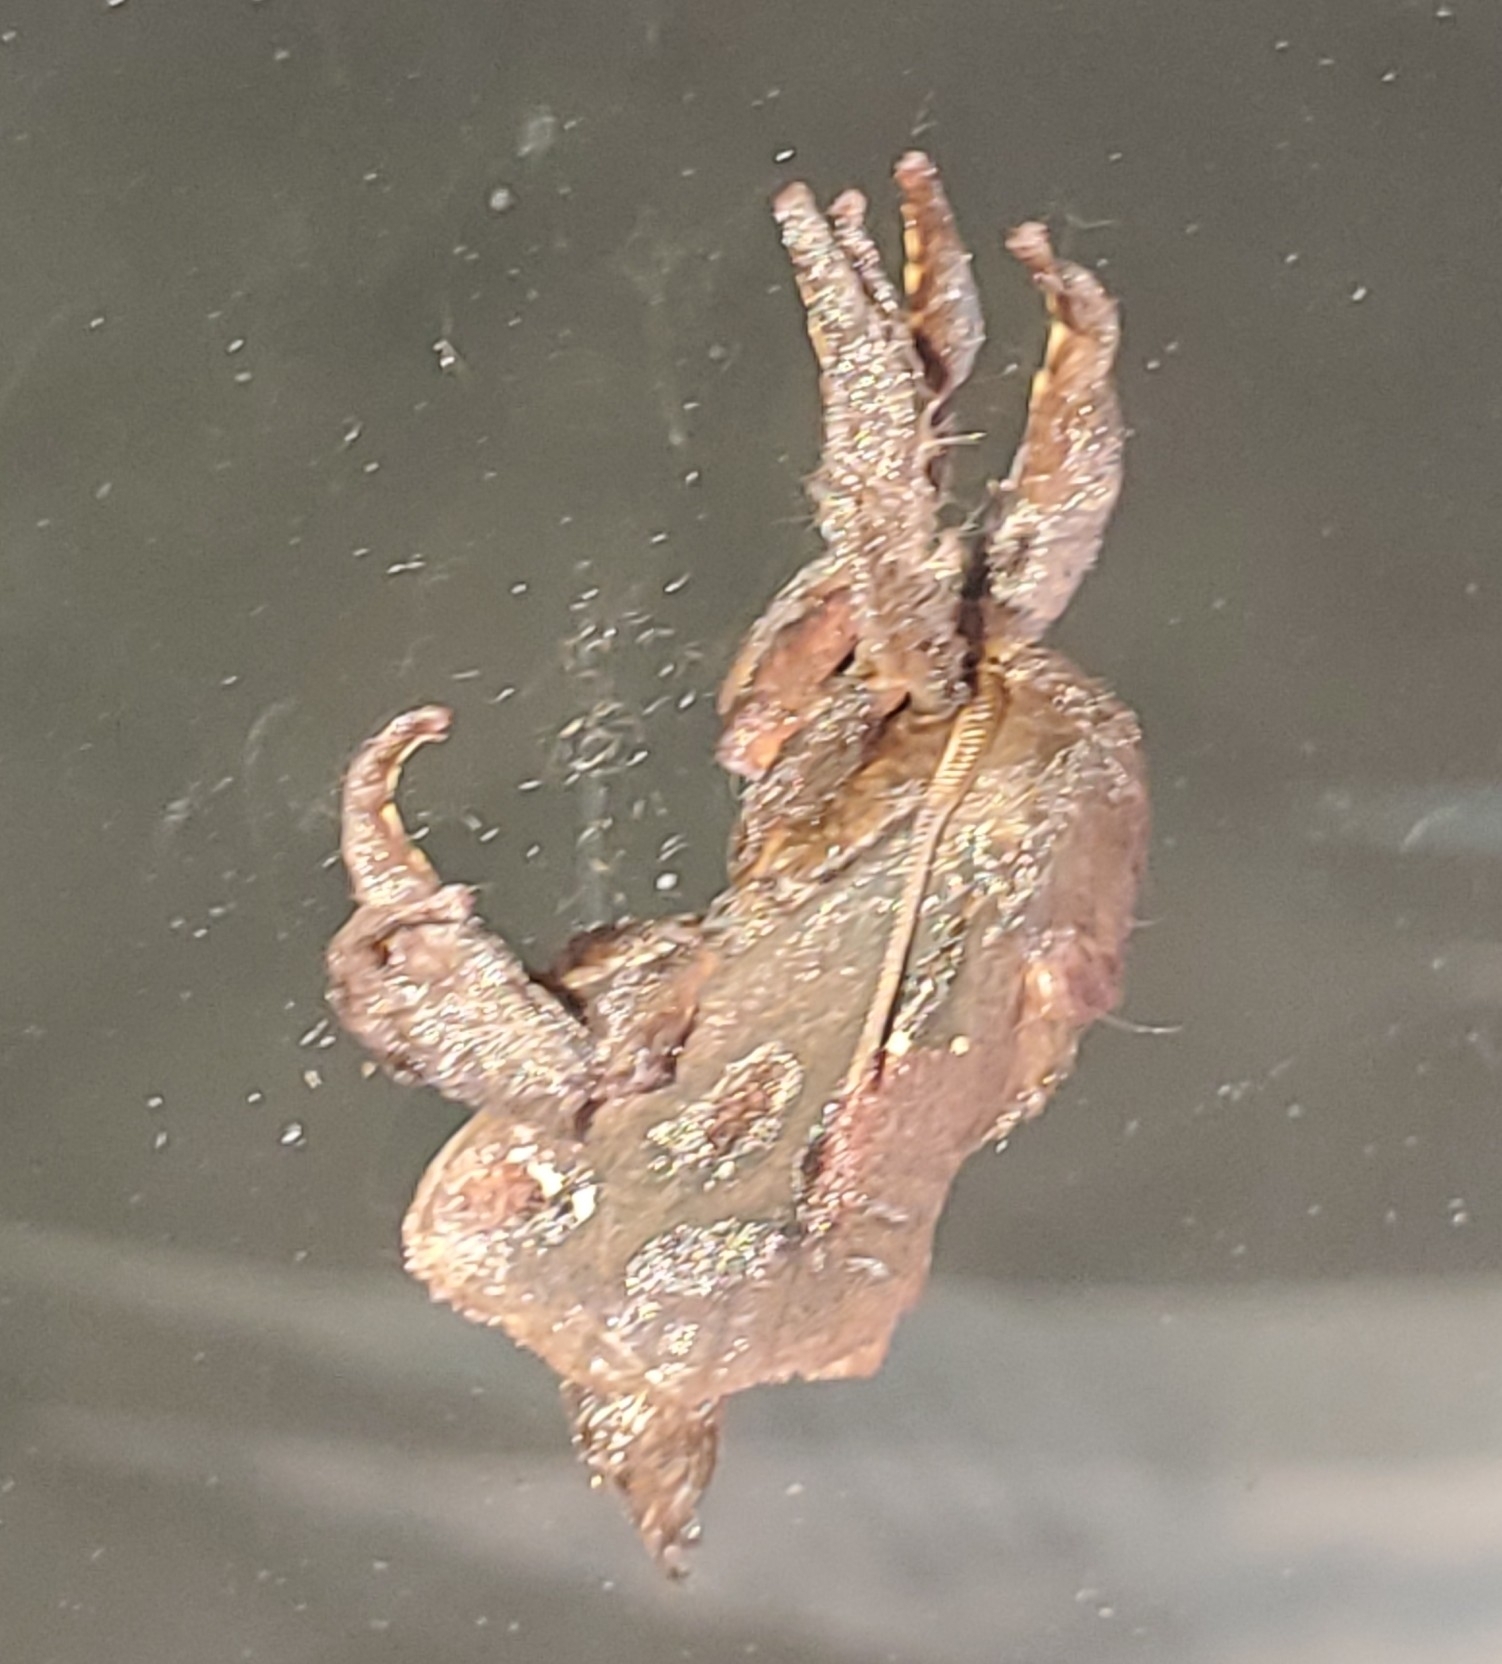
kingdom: Animalia
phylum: Arthropoda
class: Insecta
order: Lepidoptera
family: Limacodidae
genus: Acharia
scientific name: Acharia stimulea
